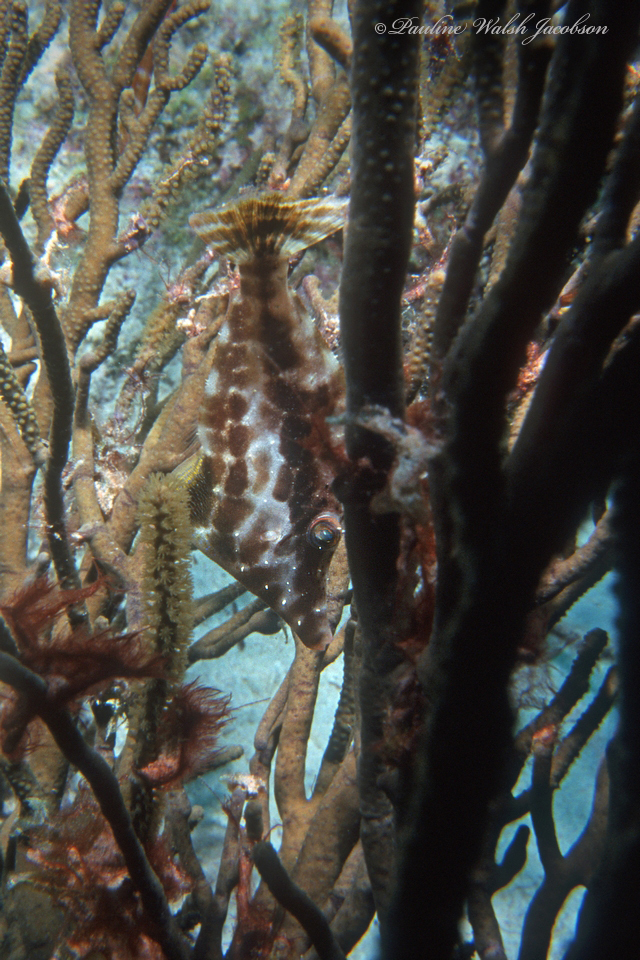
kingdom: Animalia
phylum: Chordata
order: Tetraodontiformes
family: Monacanthidae
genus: Monacanthus
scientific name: Monacanthus tuckeri
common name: Slender filefish
